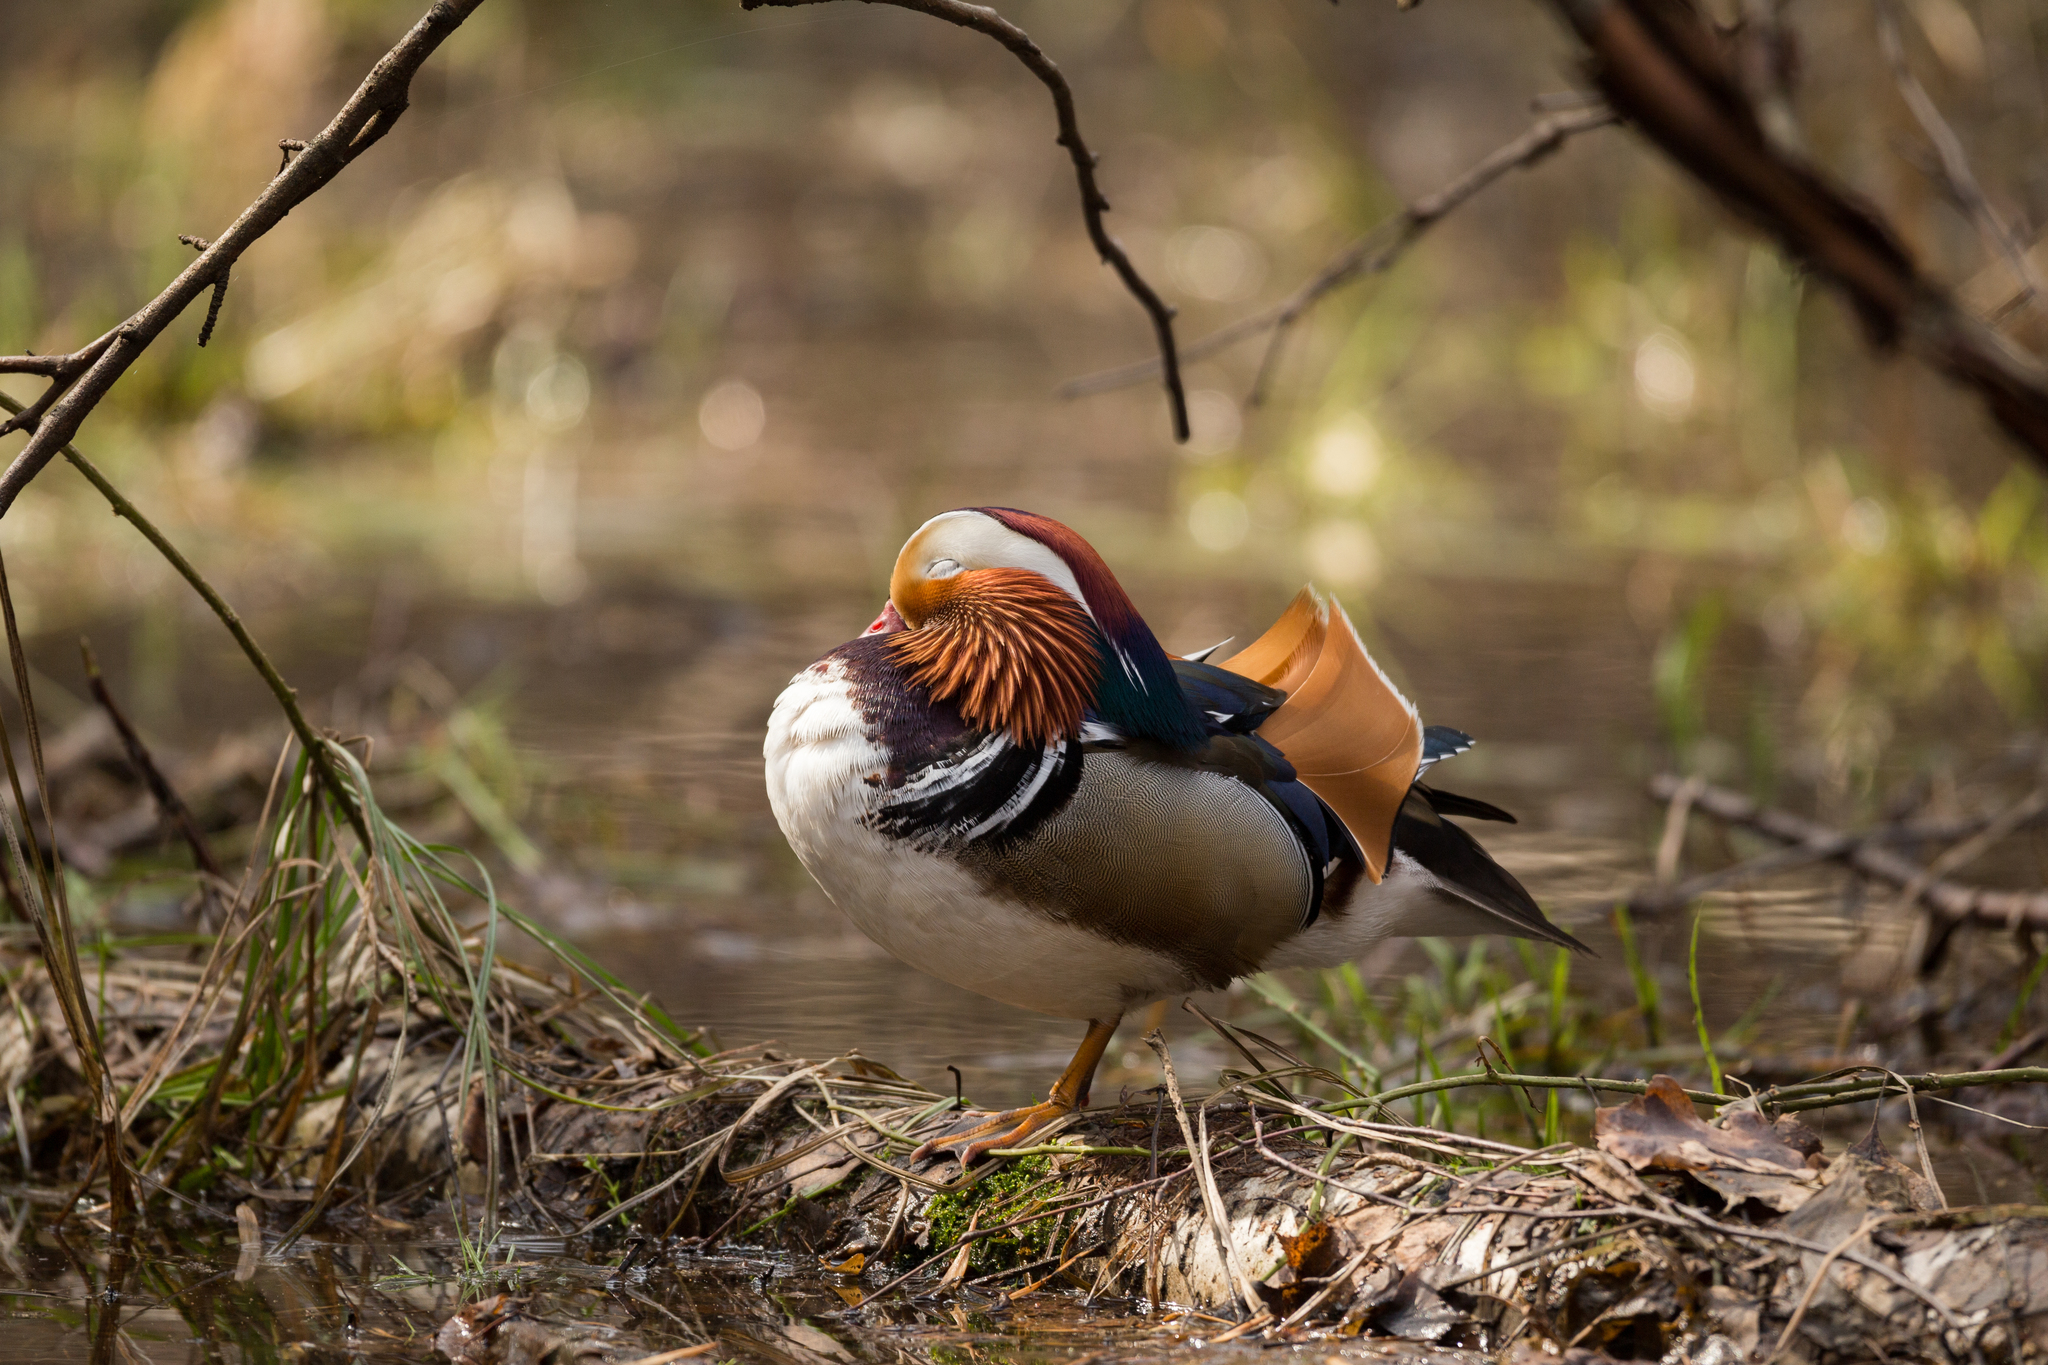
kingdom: Animalia
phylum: Chordata
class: Aves
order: Anseriformes
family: Anatidae
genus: Aix
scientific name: Aix galericulata
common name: Mandarin duck
